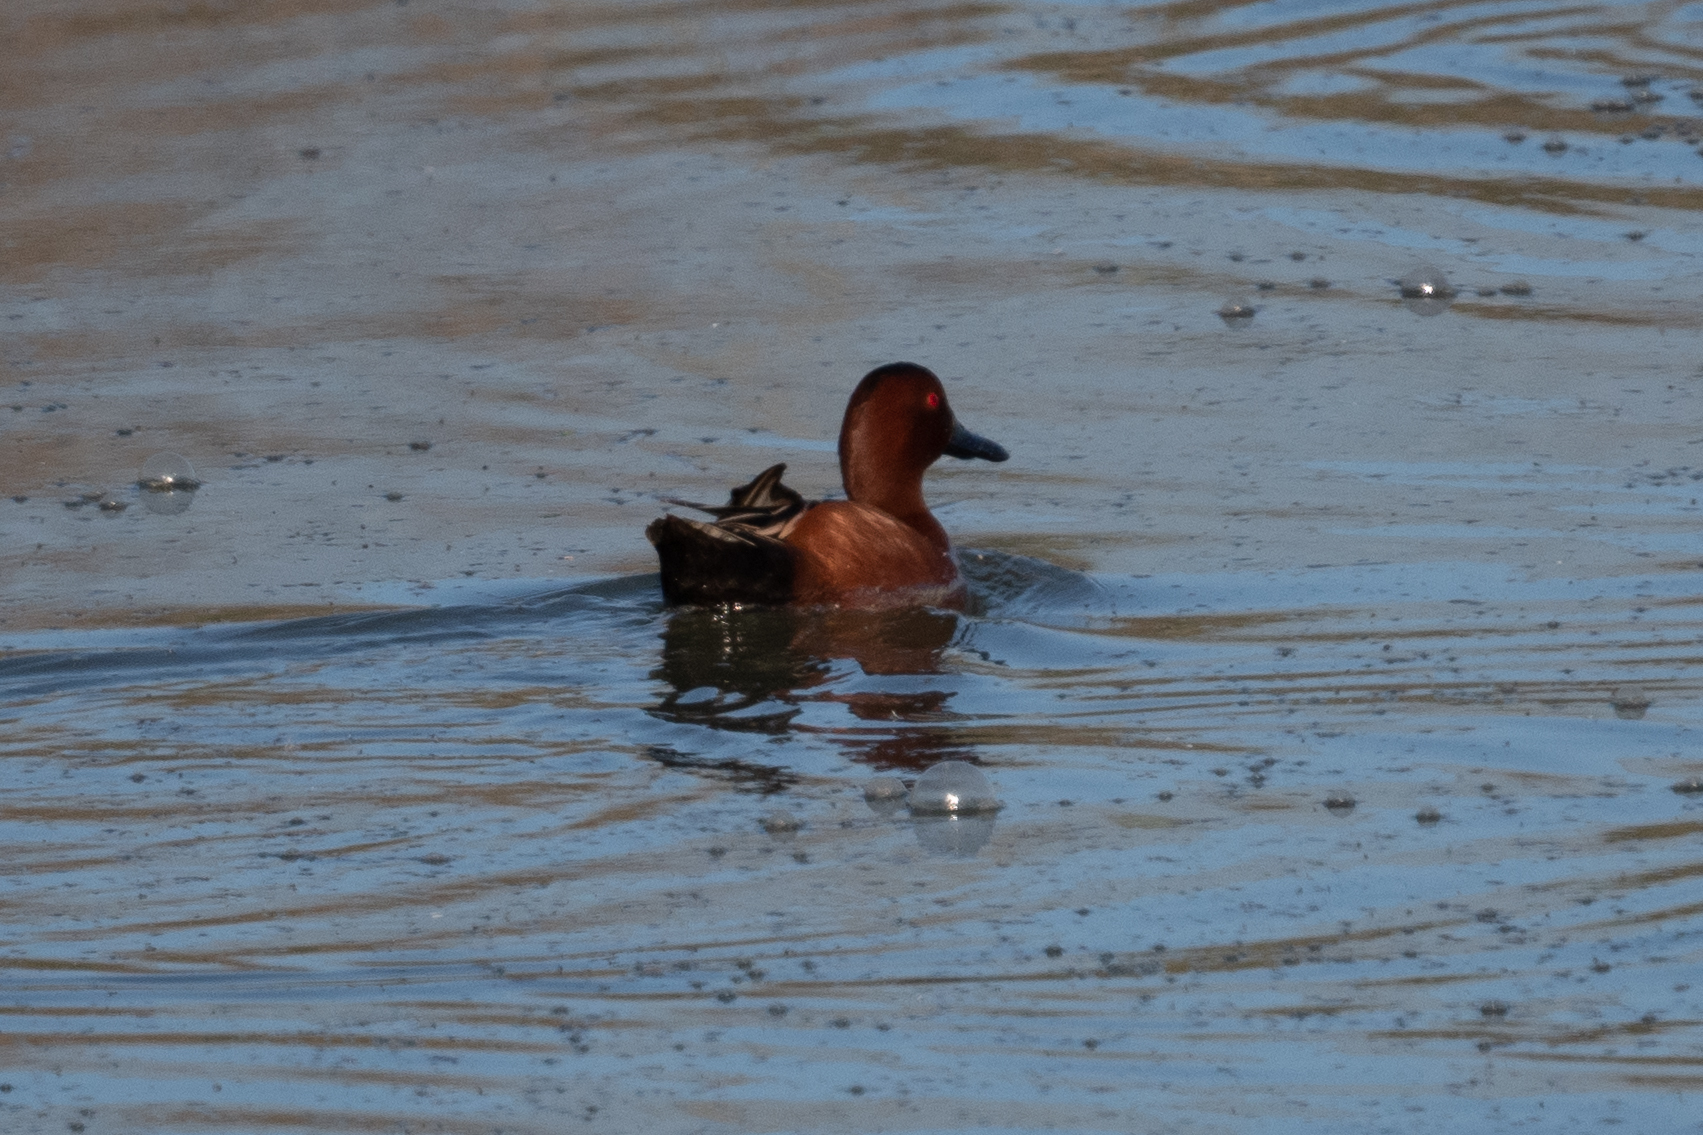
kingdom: Animalia
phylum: Chordata
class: Aves
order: Anseriformes
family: Anatidae
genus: Spatula
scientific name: Spatula cyanoptera
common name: Cinnamon teal
